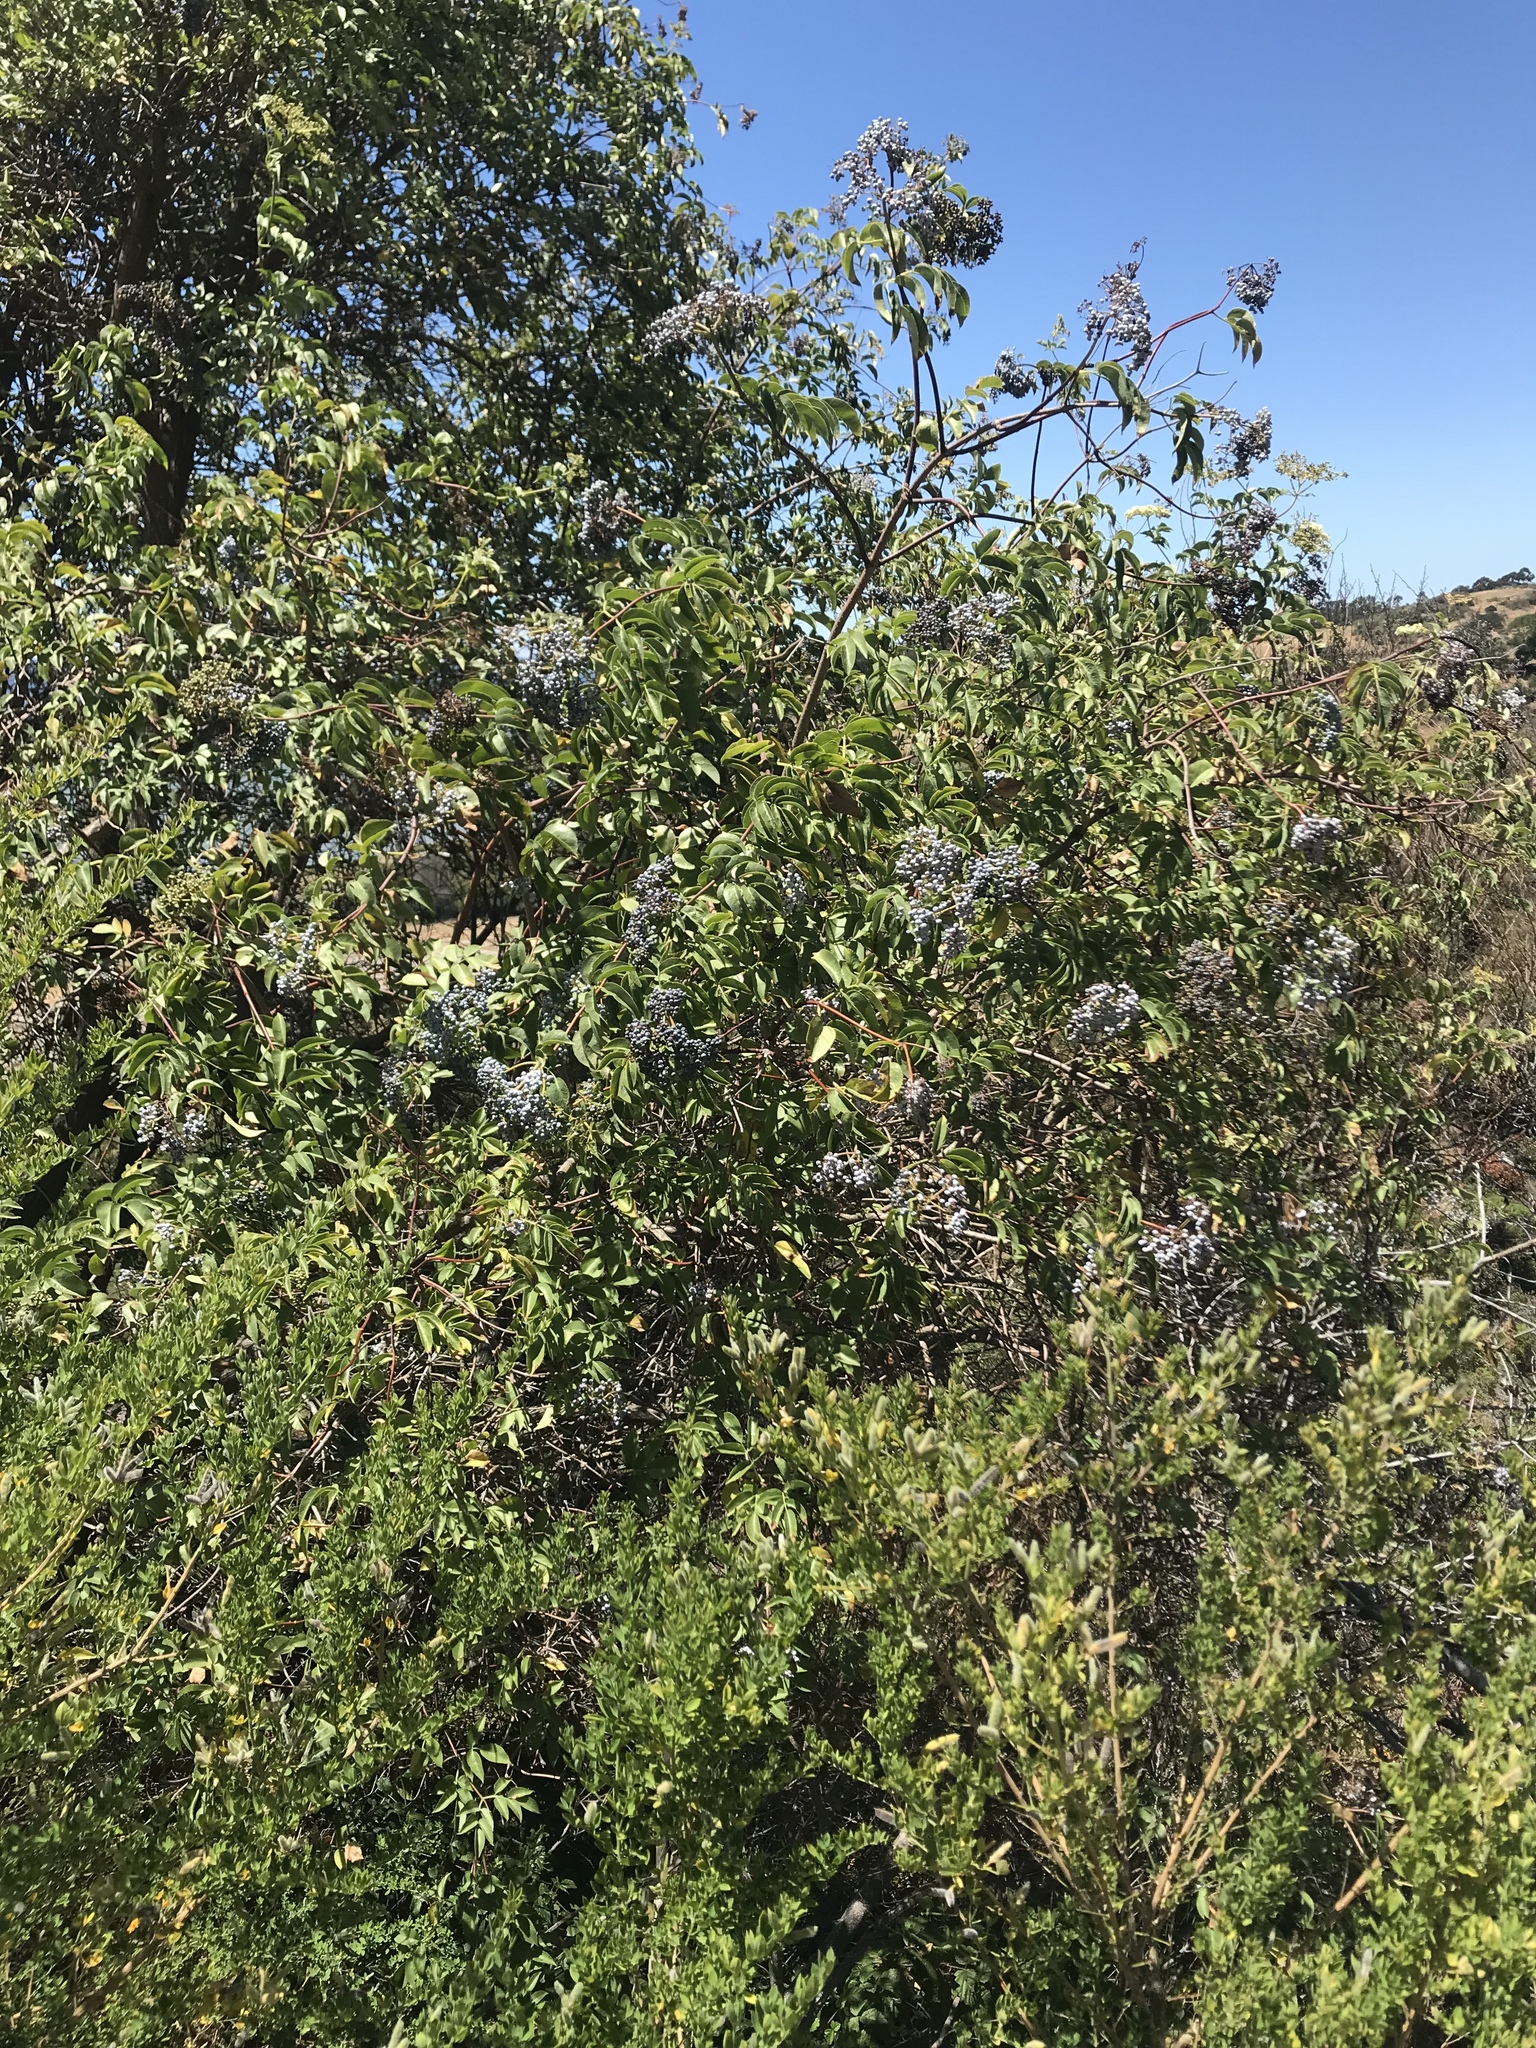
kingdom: Plantae
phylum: Tracheophyta
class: Magnoliopsida
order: Dipsacales
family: Viburnaceae
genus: Sambucus
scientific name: Sambucus cerulea
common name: Blue elder
